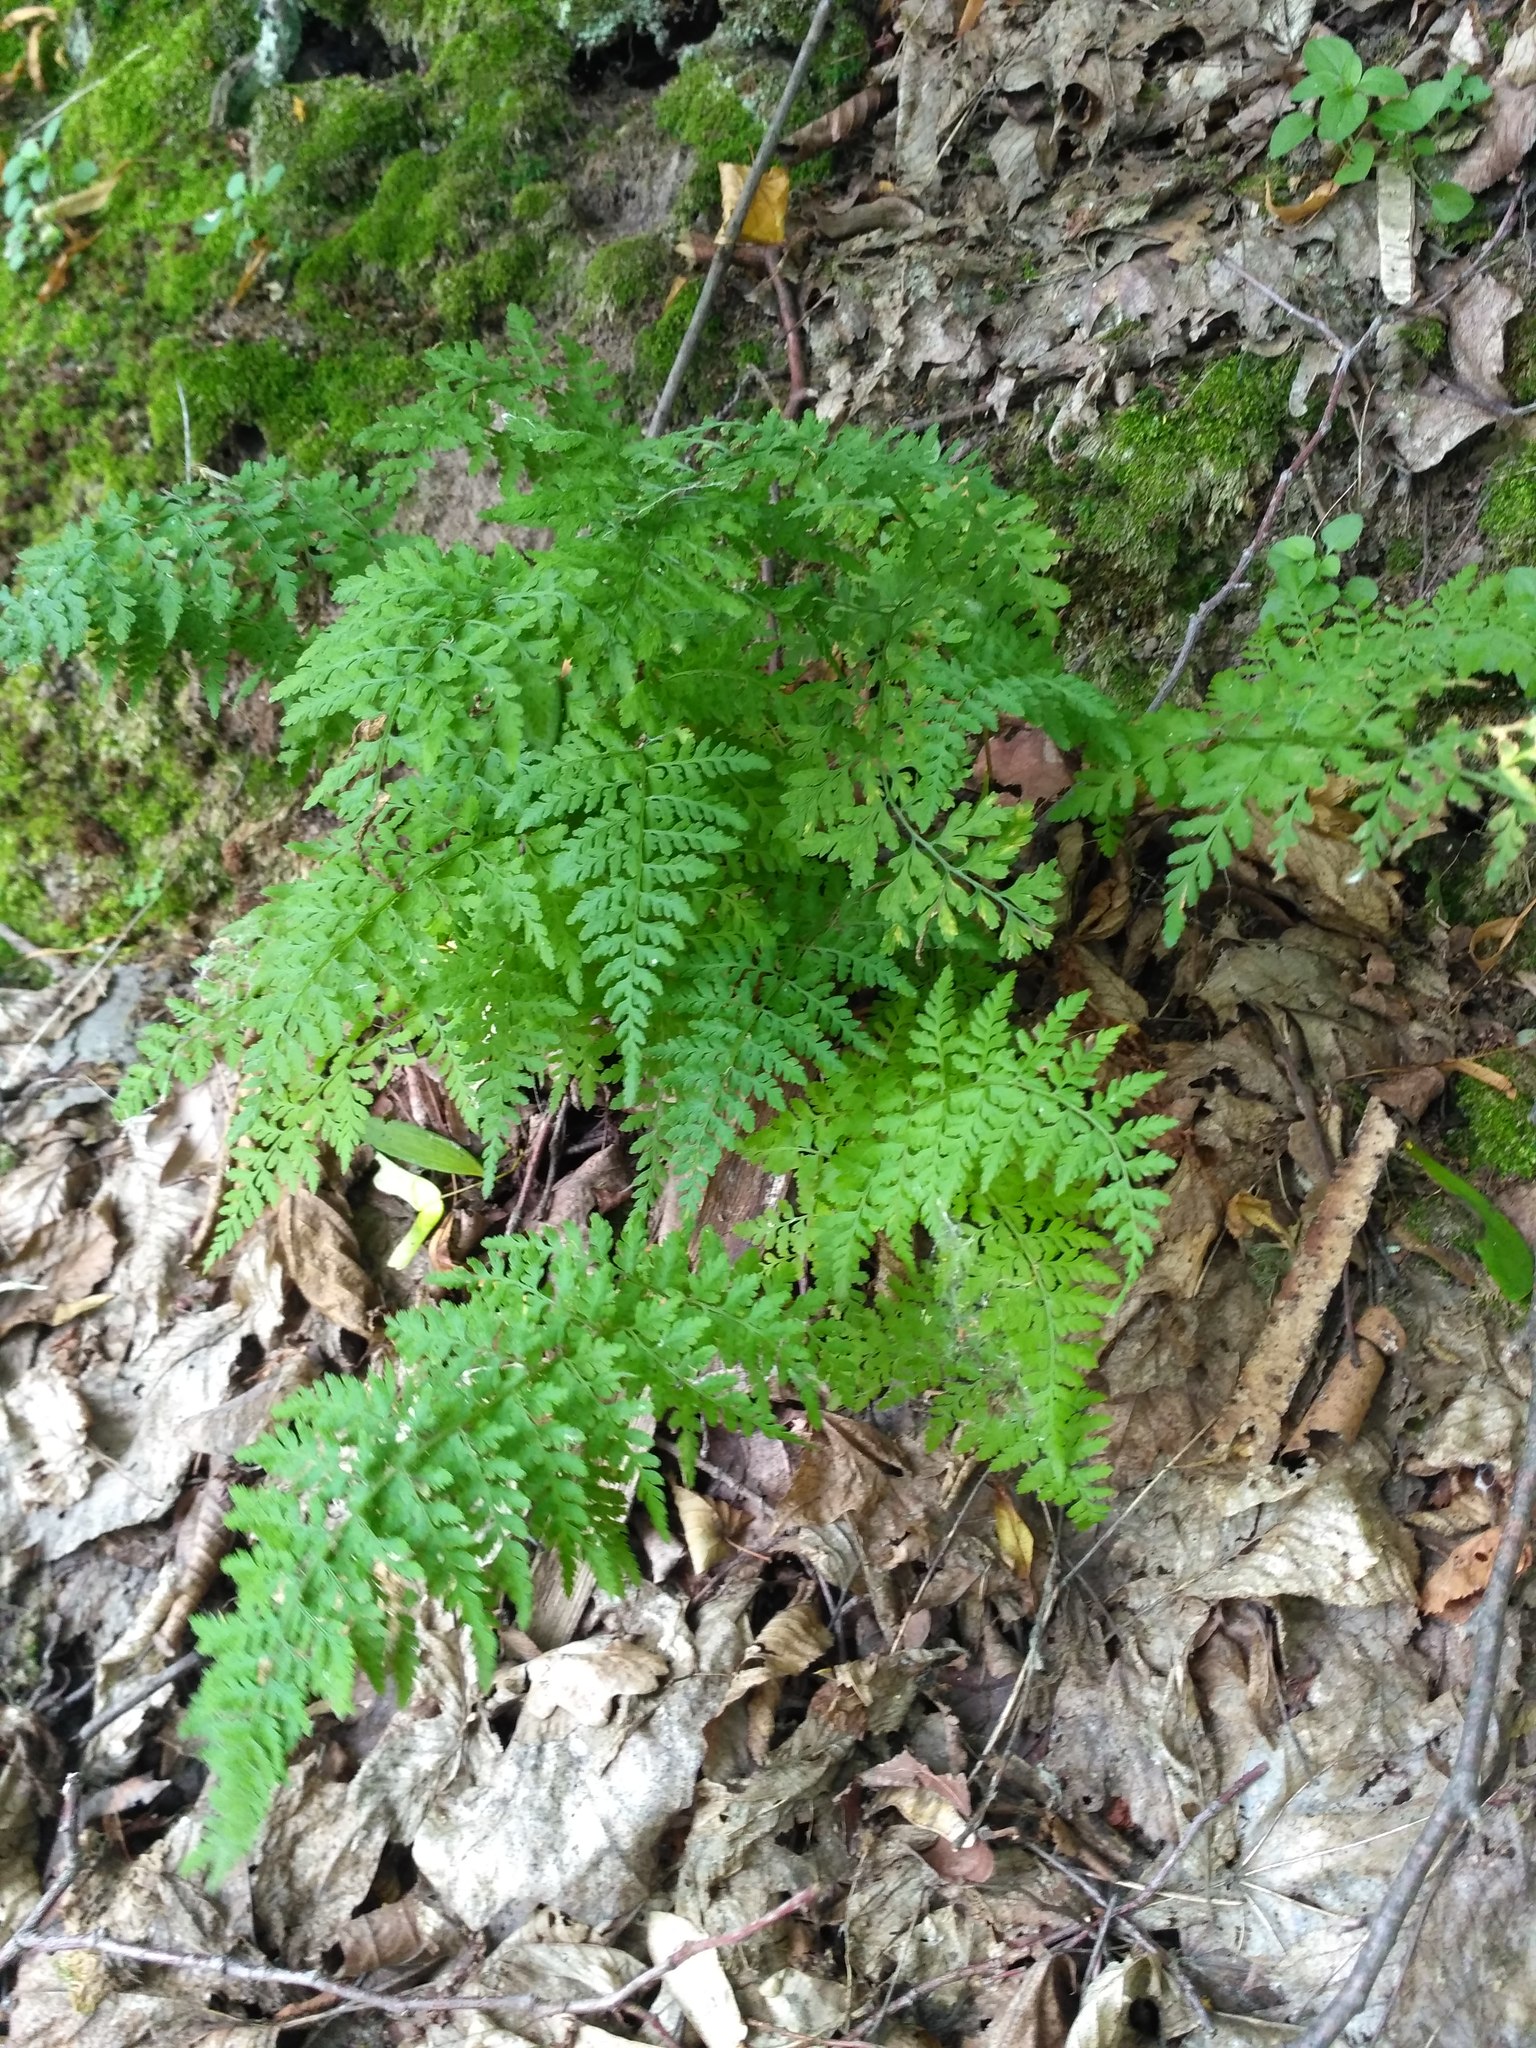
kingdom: Plantae
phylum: Tracheophyta
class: Polypodiopsida
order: Polypodiales
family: Cystopteridaceae
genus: Cystopteris
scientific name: Cystopteris fragilis
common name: Brittle bladder fern
